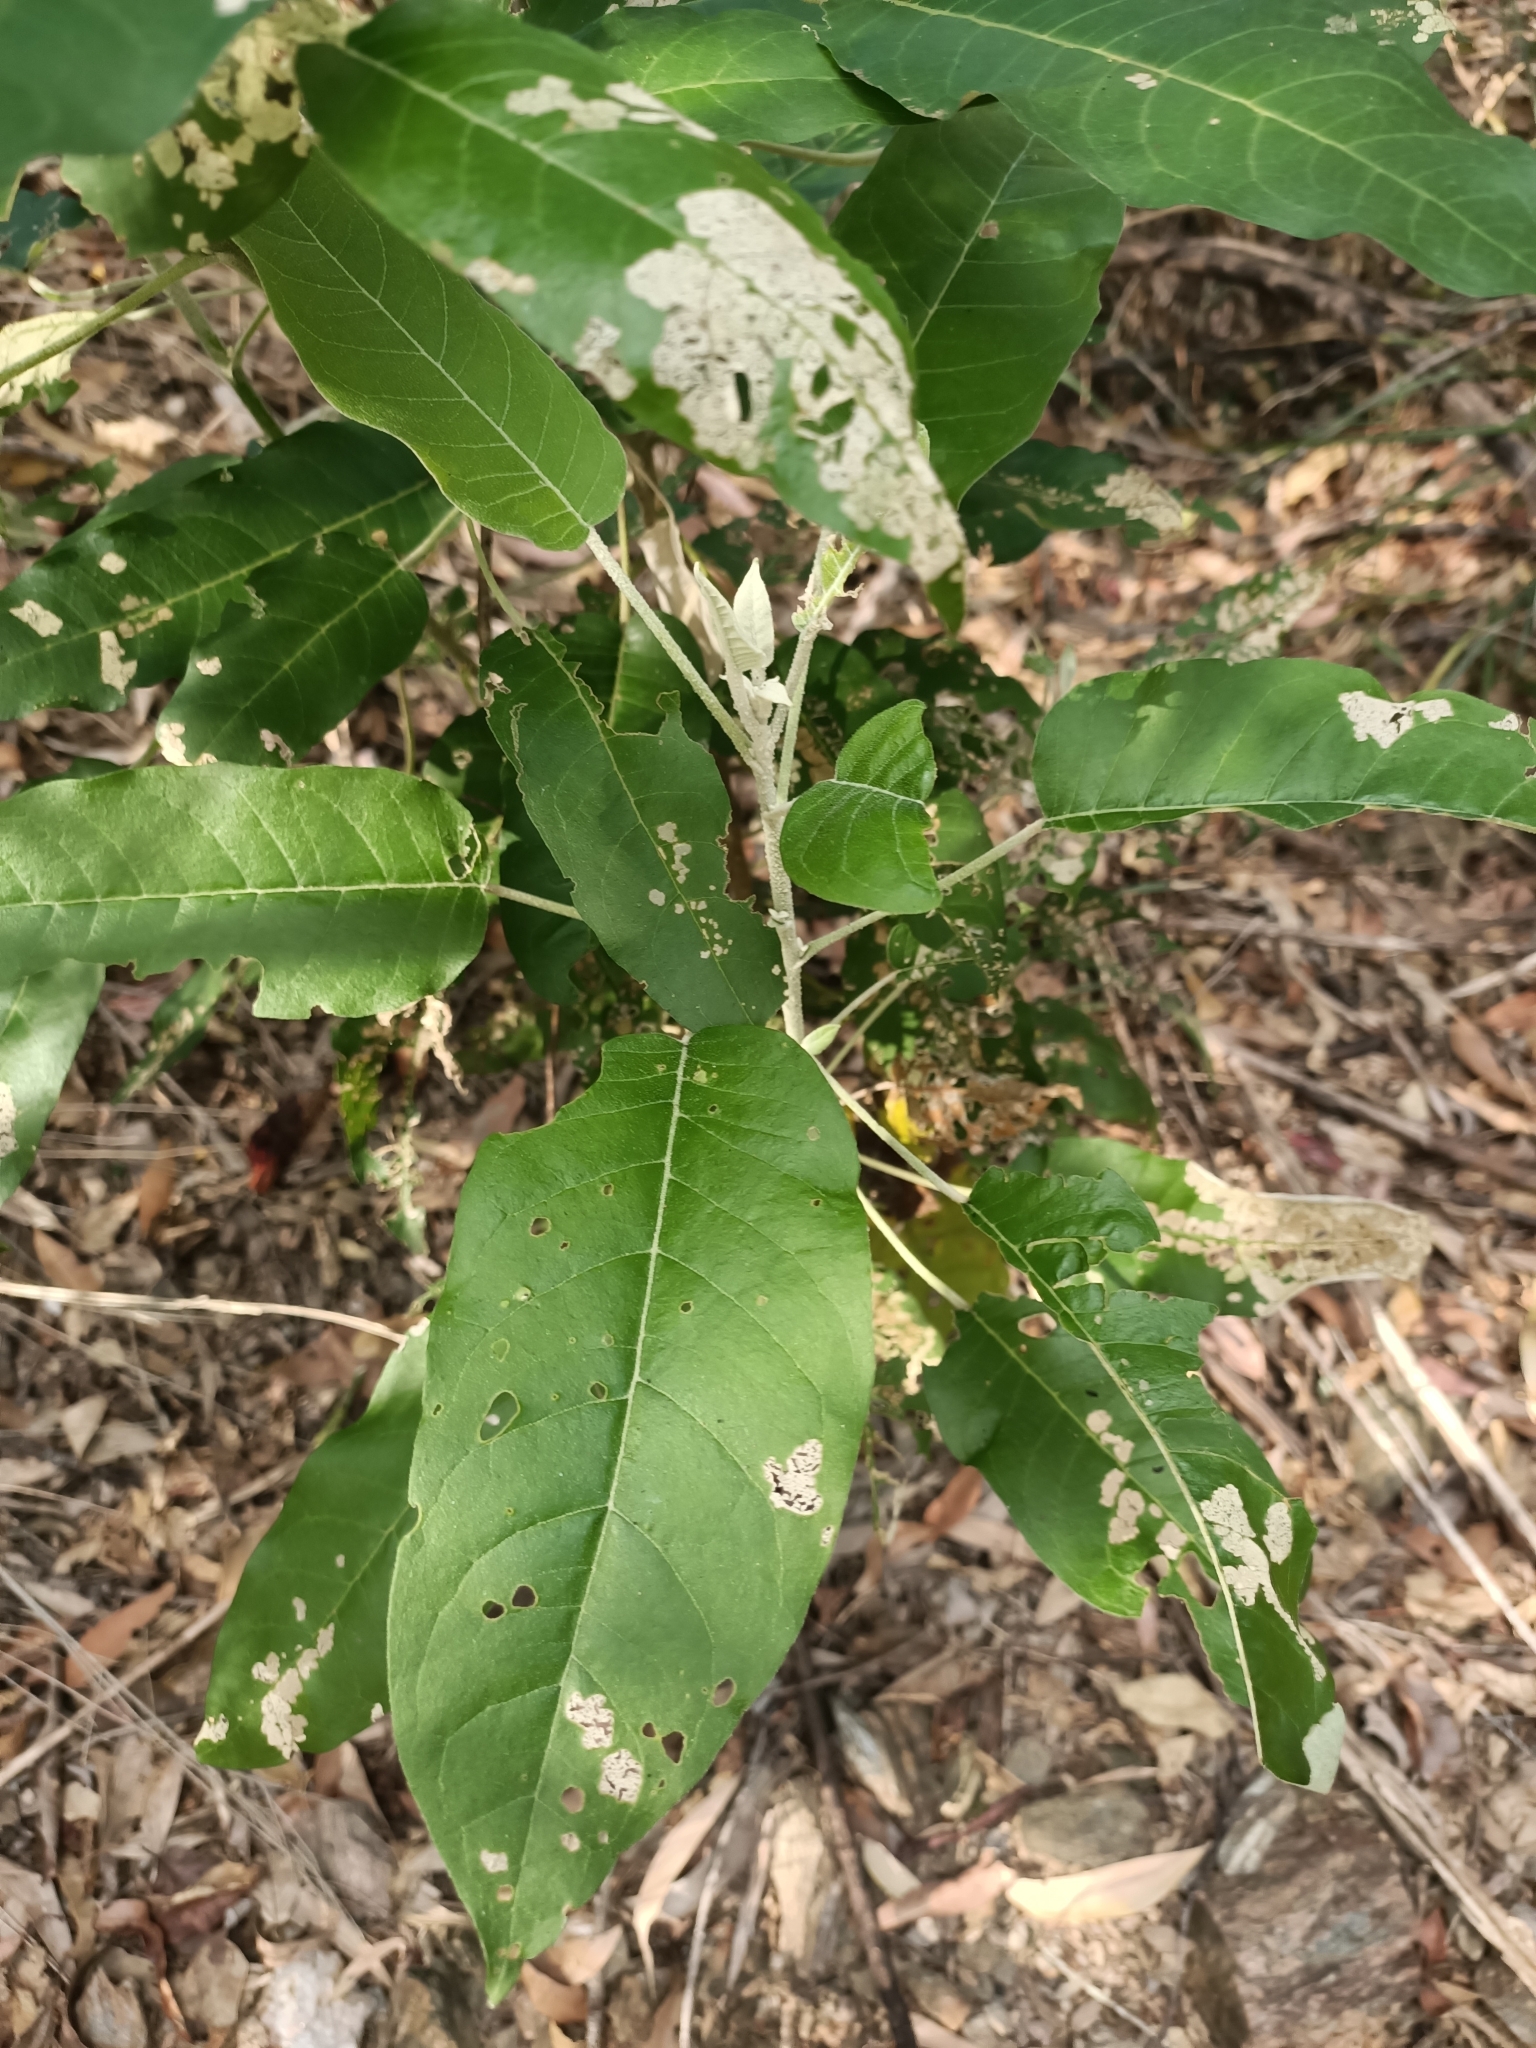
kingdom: Plantae
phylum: Tracheophyta
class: Magnoliopsida
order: Apiales
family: Araliaceae
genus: Astrotricha
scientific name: Astrotricha latifolia
